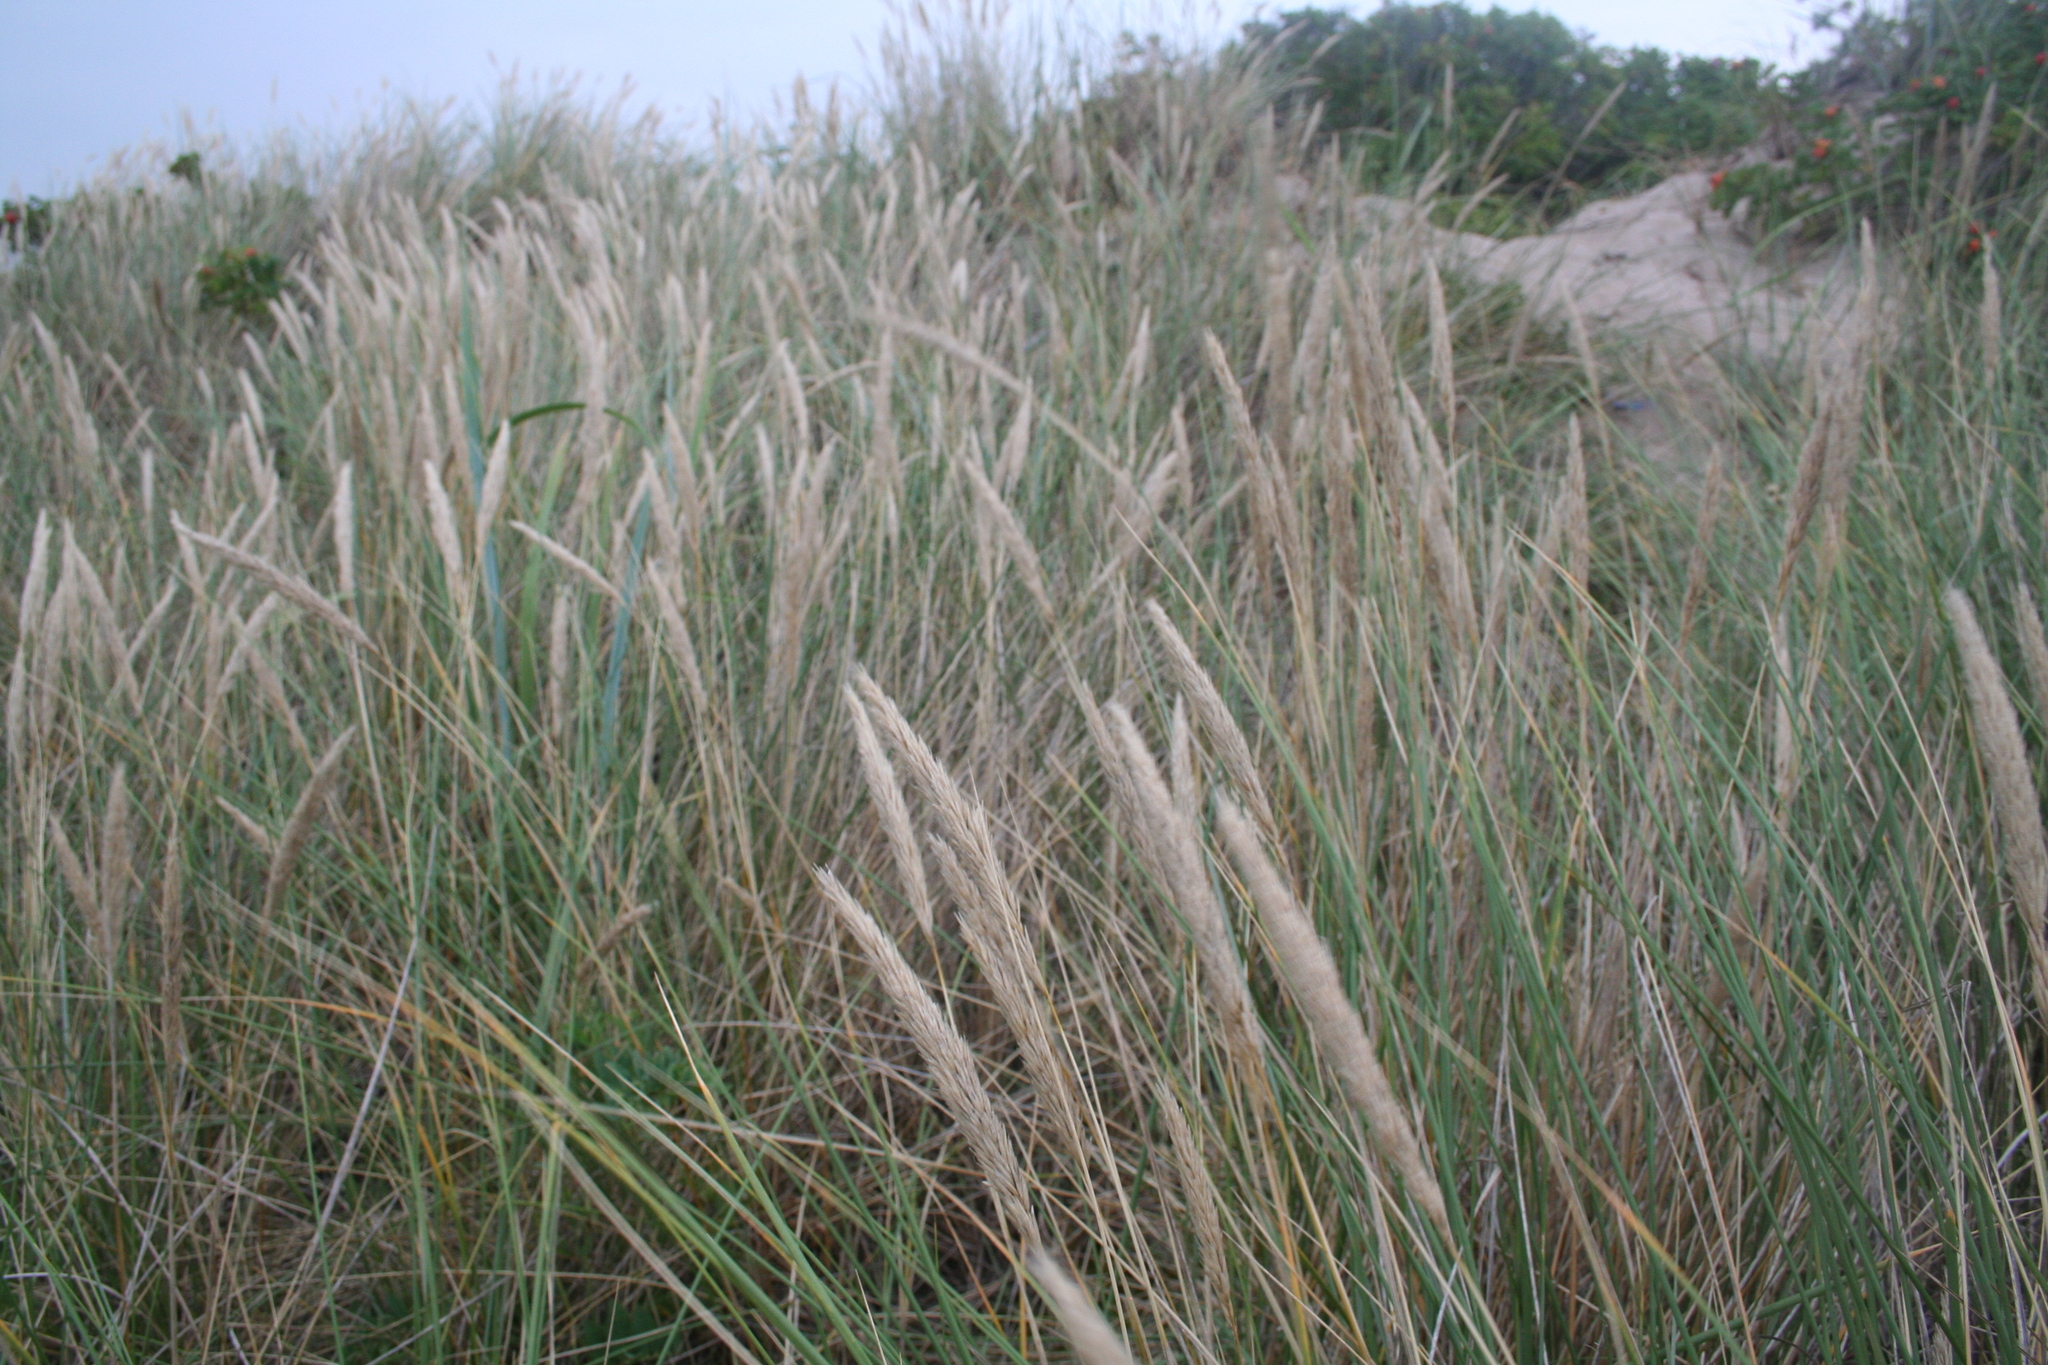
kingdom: Plantae
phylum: Tracheophyta
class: Liliopsida
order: Poales
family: Poaceae
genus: Calamagrostis
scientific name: Calamagrostis arenaria
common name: European beachgrass
